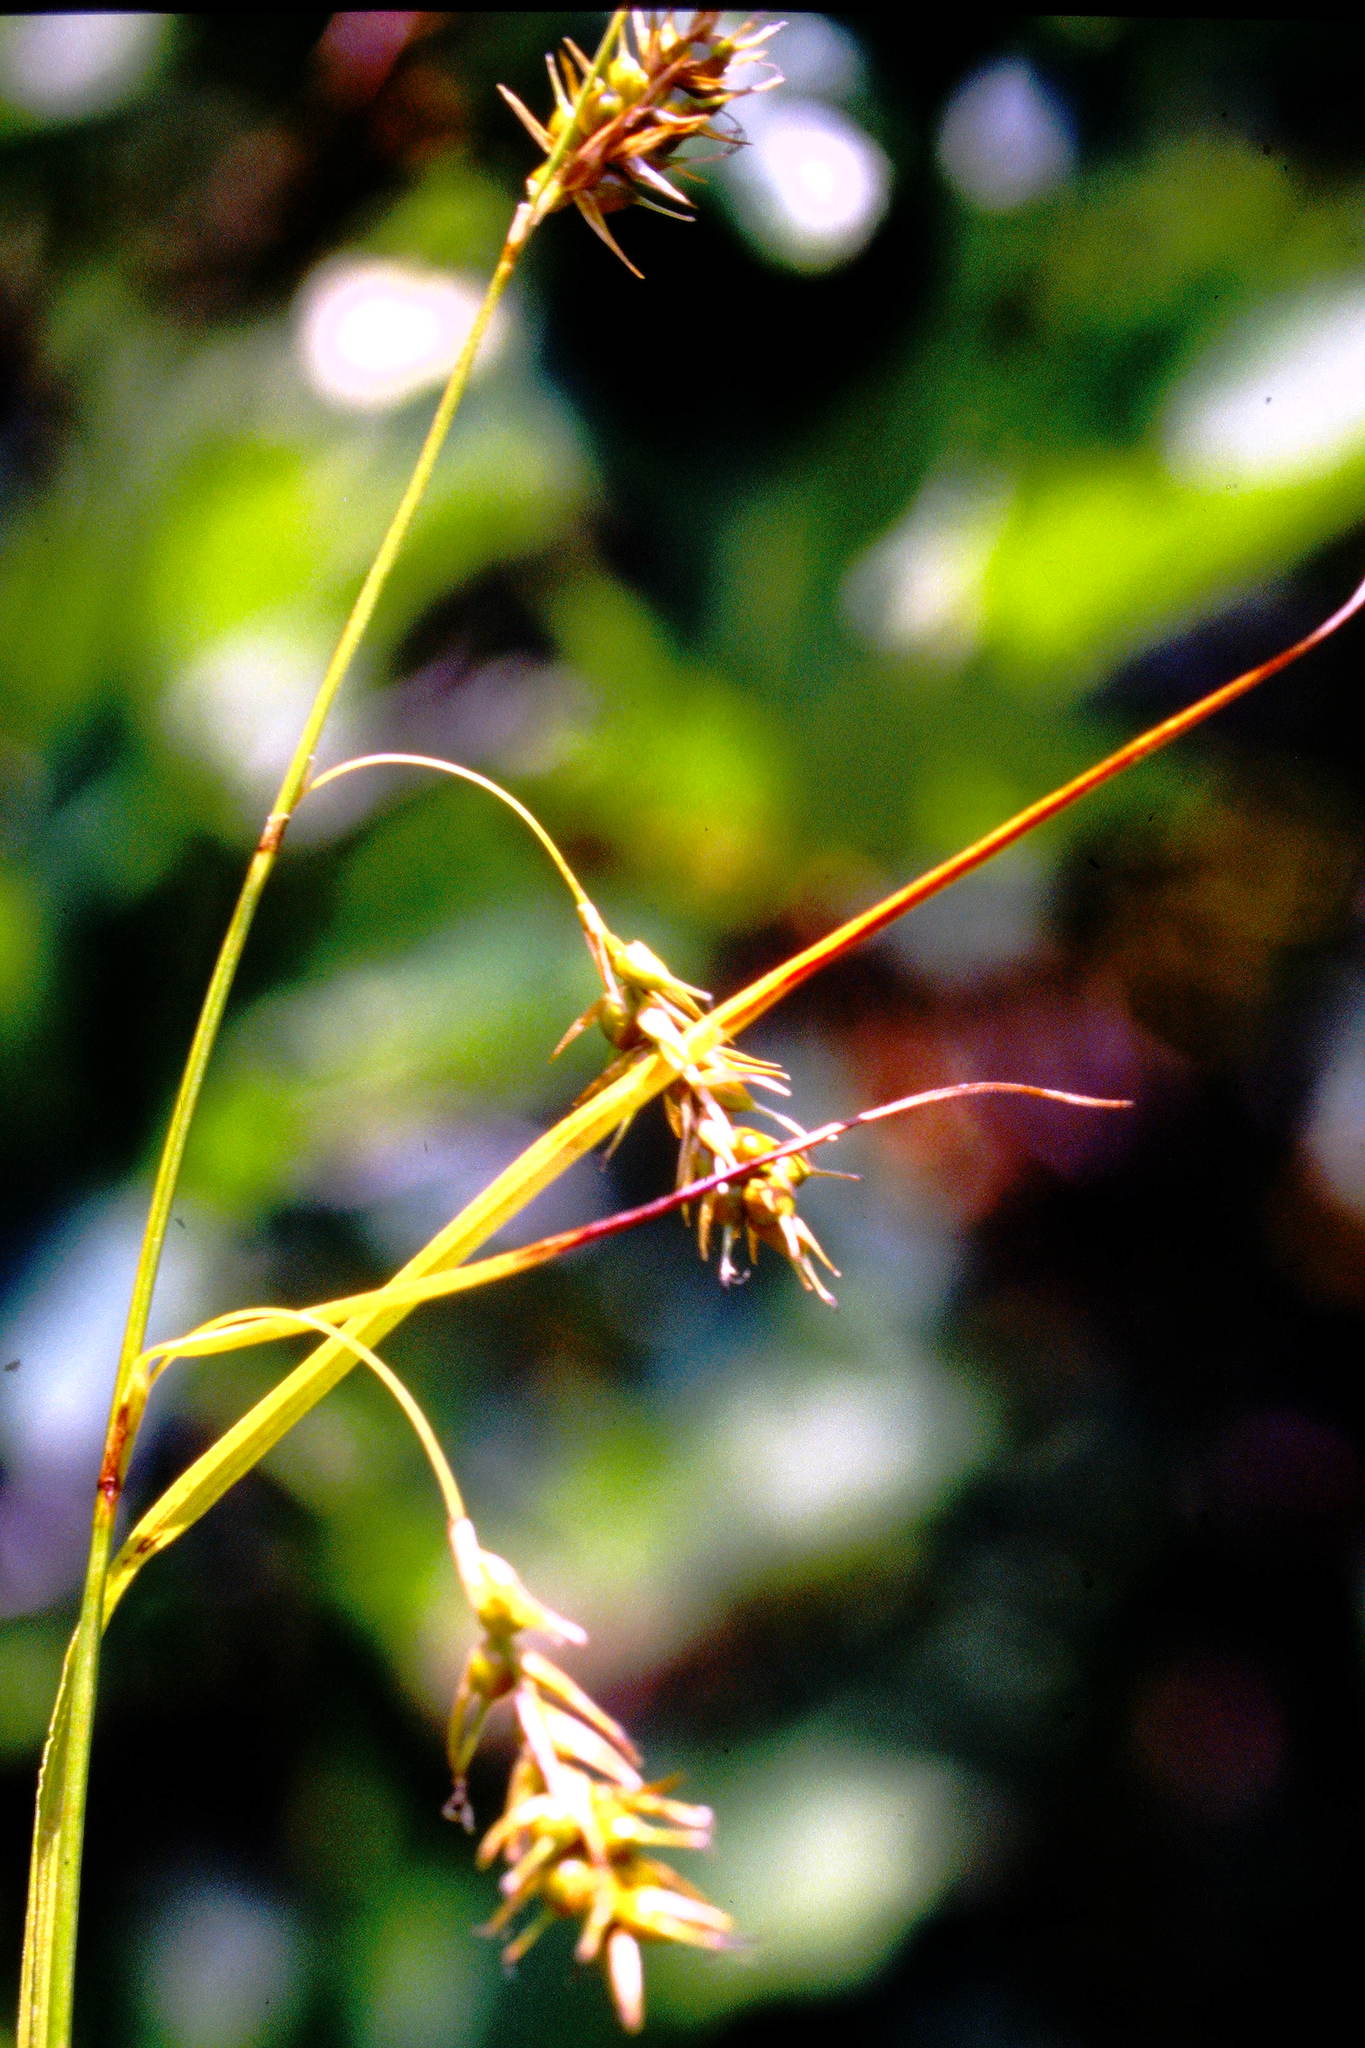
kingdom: Plantae
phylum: Tracheophyta
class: Liliopsida
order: Poales
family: Cyperaceae
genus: Carex
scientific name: Carex sprengelii
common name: Long-beaked sedge
